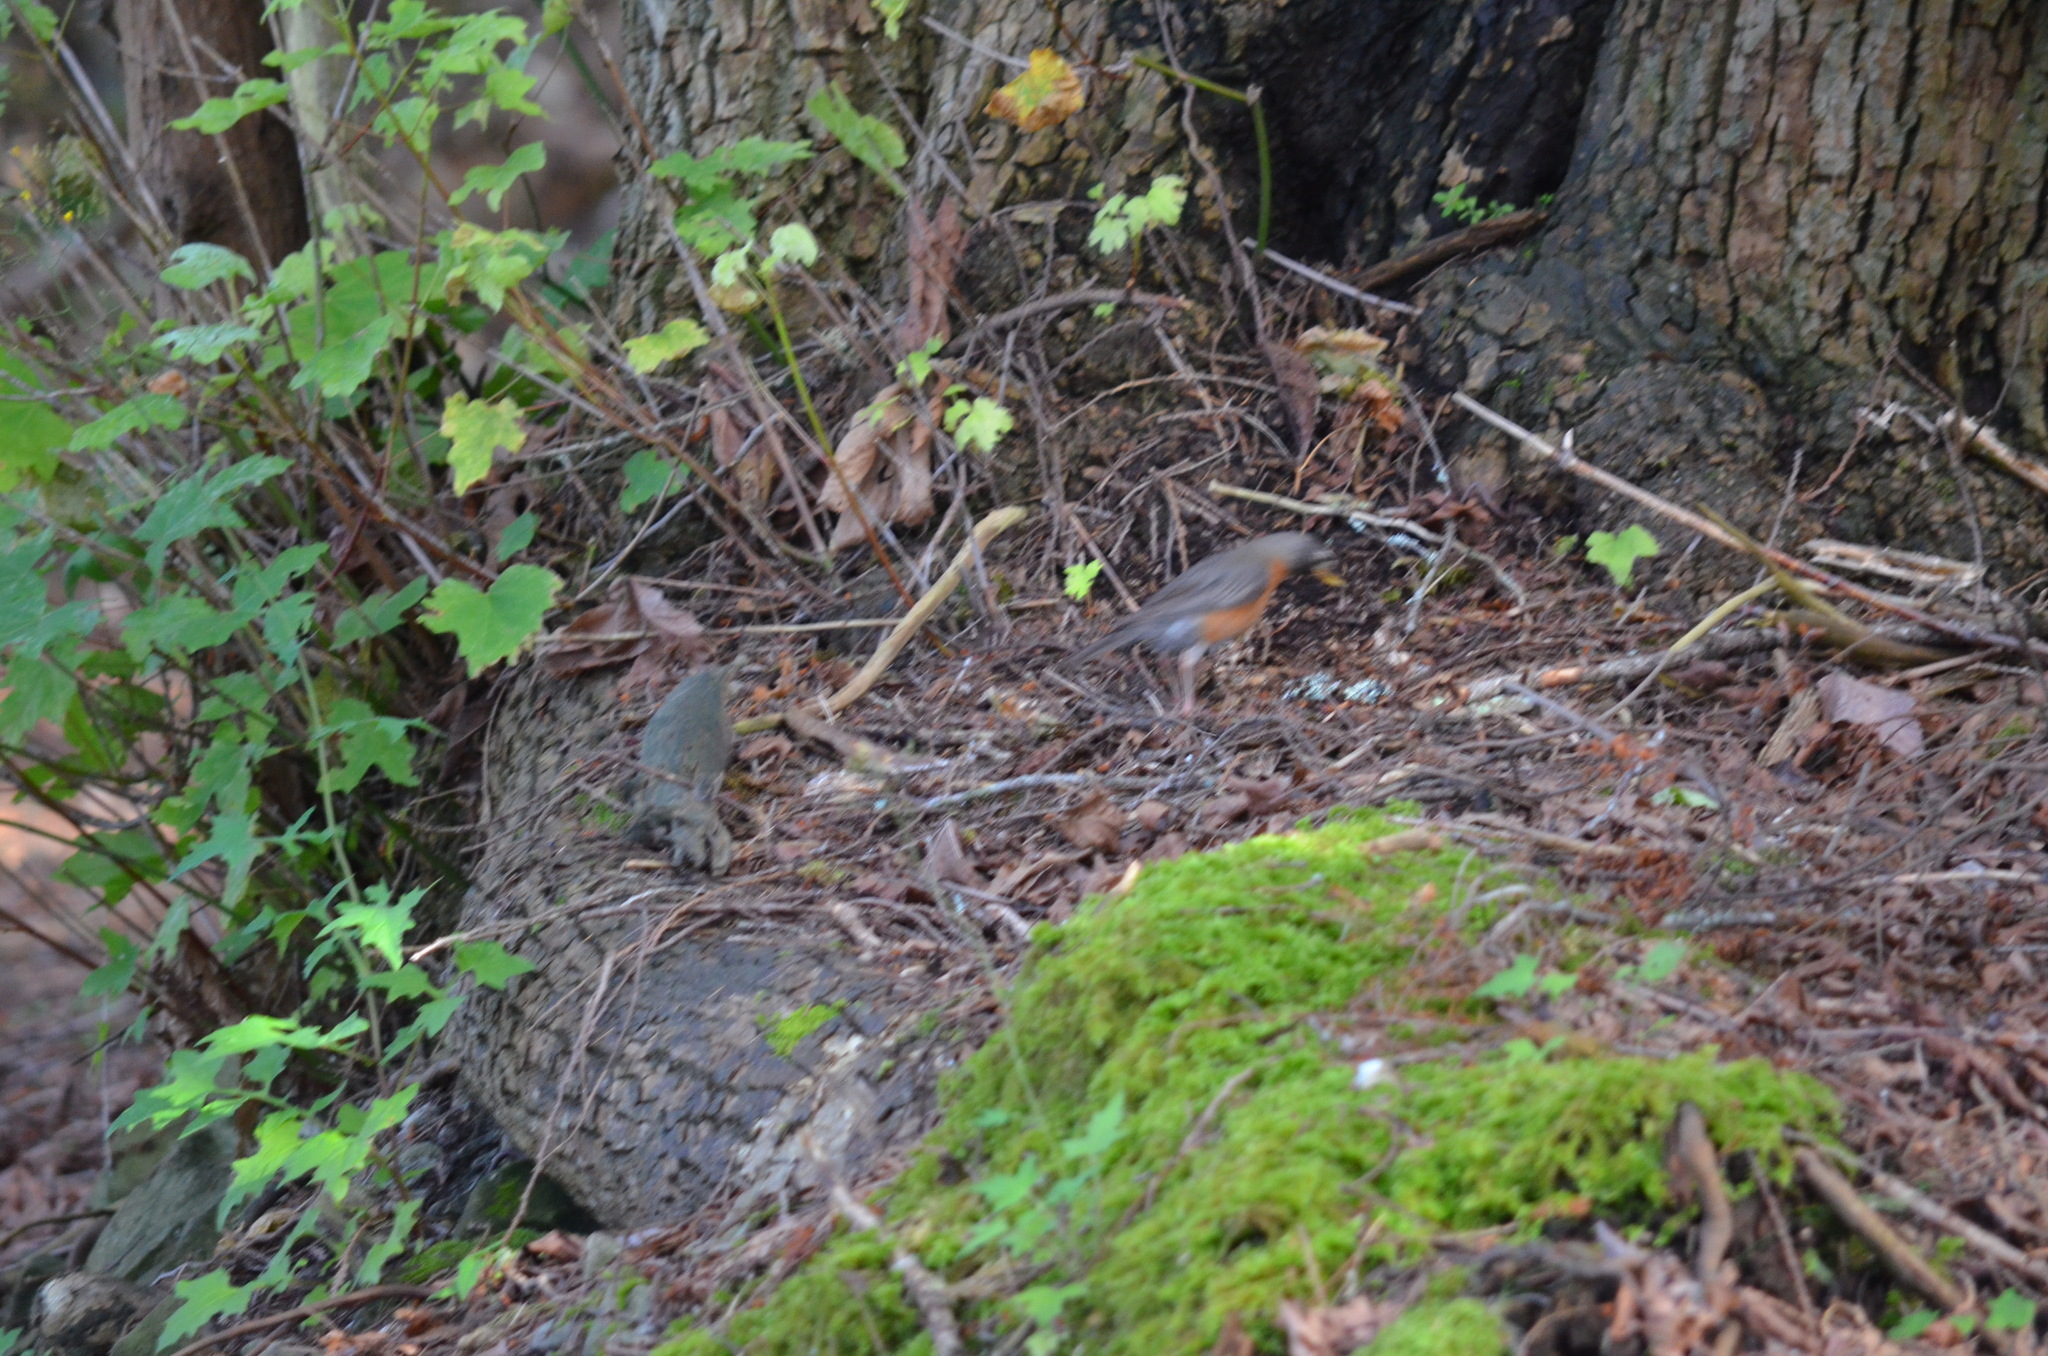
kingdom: Animalia
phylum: Chordata
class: Aves
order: Passeriformes
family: Turdidae
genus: Turdus
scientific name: Turdus migratorius
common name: American robin
